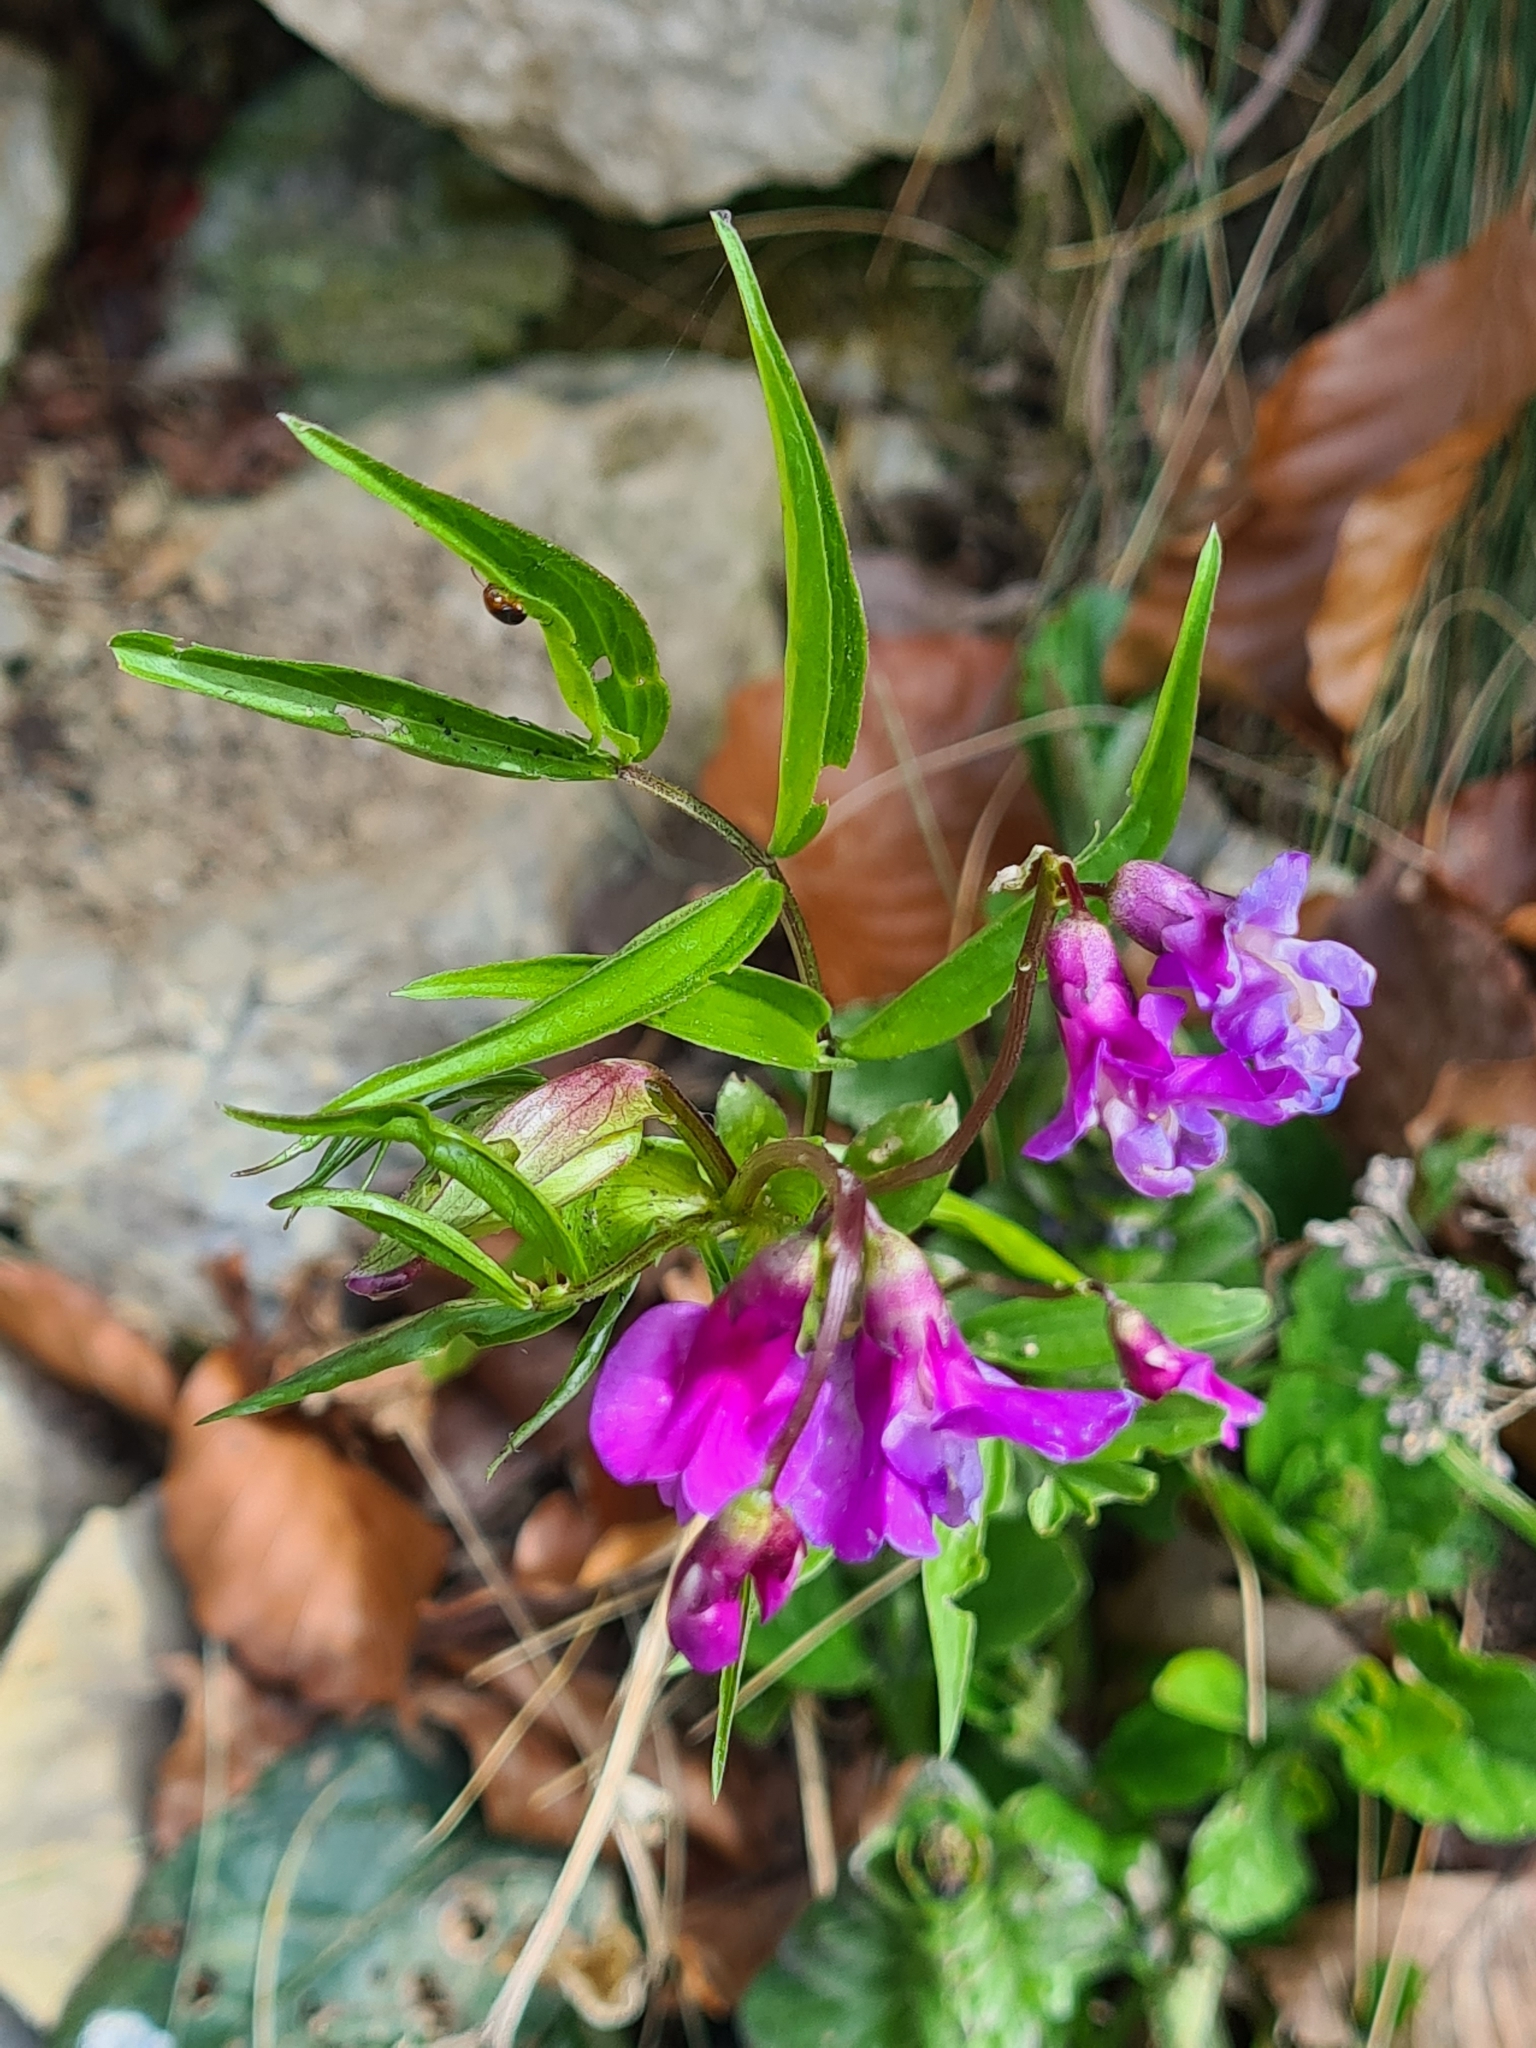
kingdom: Plantae
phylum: Tracheophyta
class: Magnoliopsida
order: Fabales
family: Fabaceae
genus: Lathyrus
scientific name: Lathyrus vernus
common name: Spring pea
